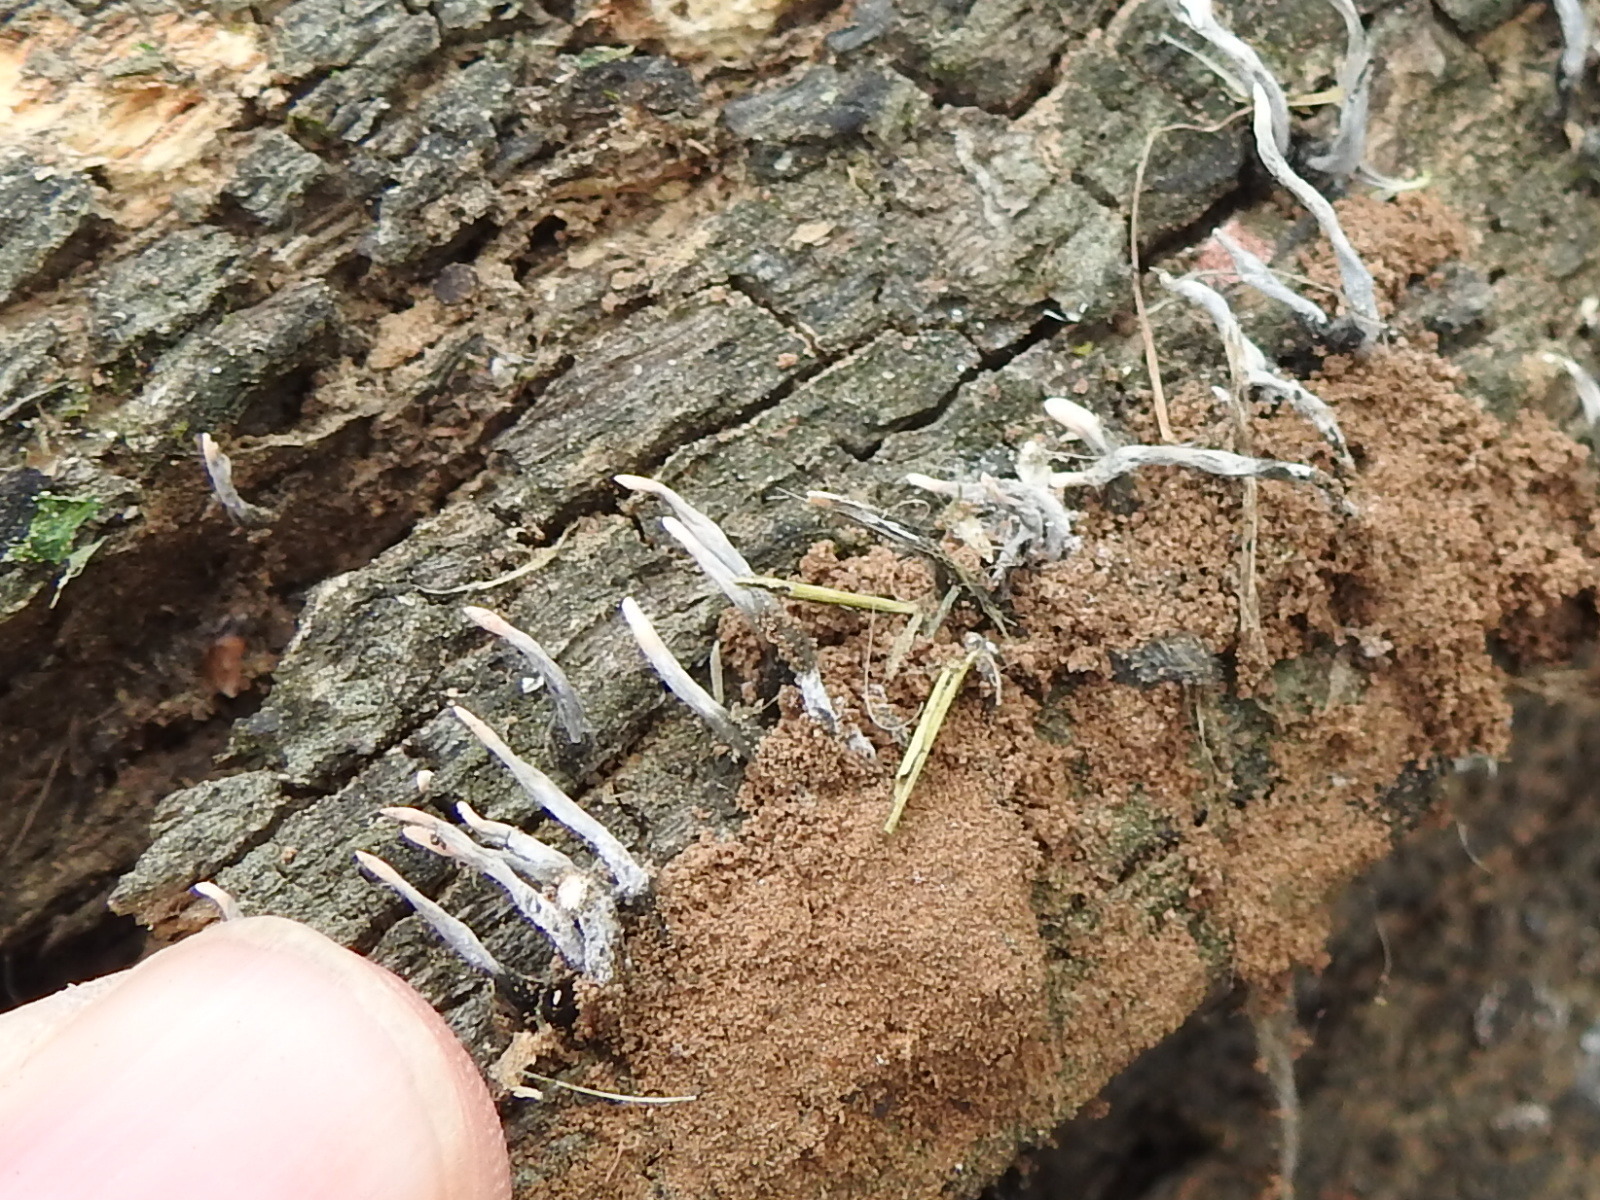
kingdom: Fungi
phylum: Ascomycota
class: Sordariomycetes
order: Xylariales
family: Xylariaceae
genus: Xylaria
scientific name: Xylaria hypoxylon
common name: Candle-snuff fungus
